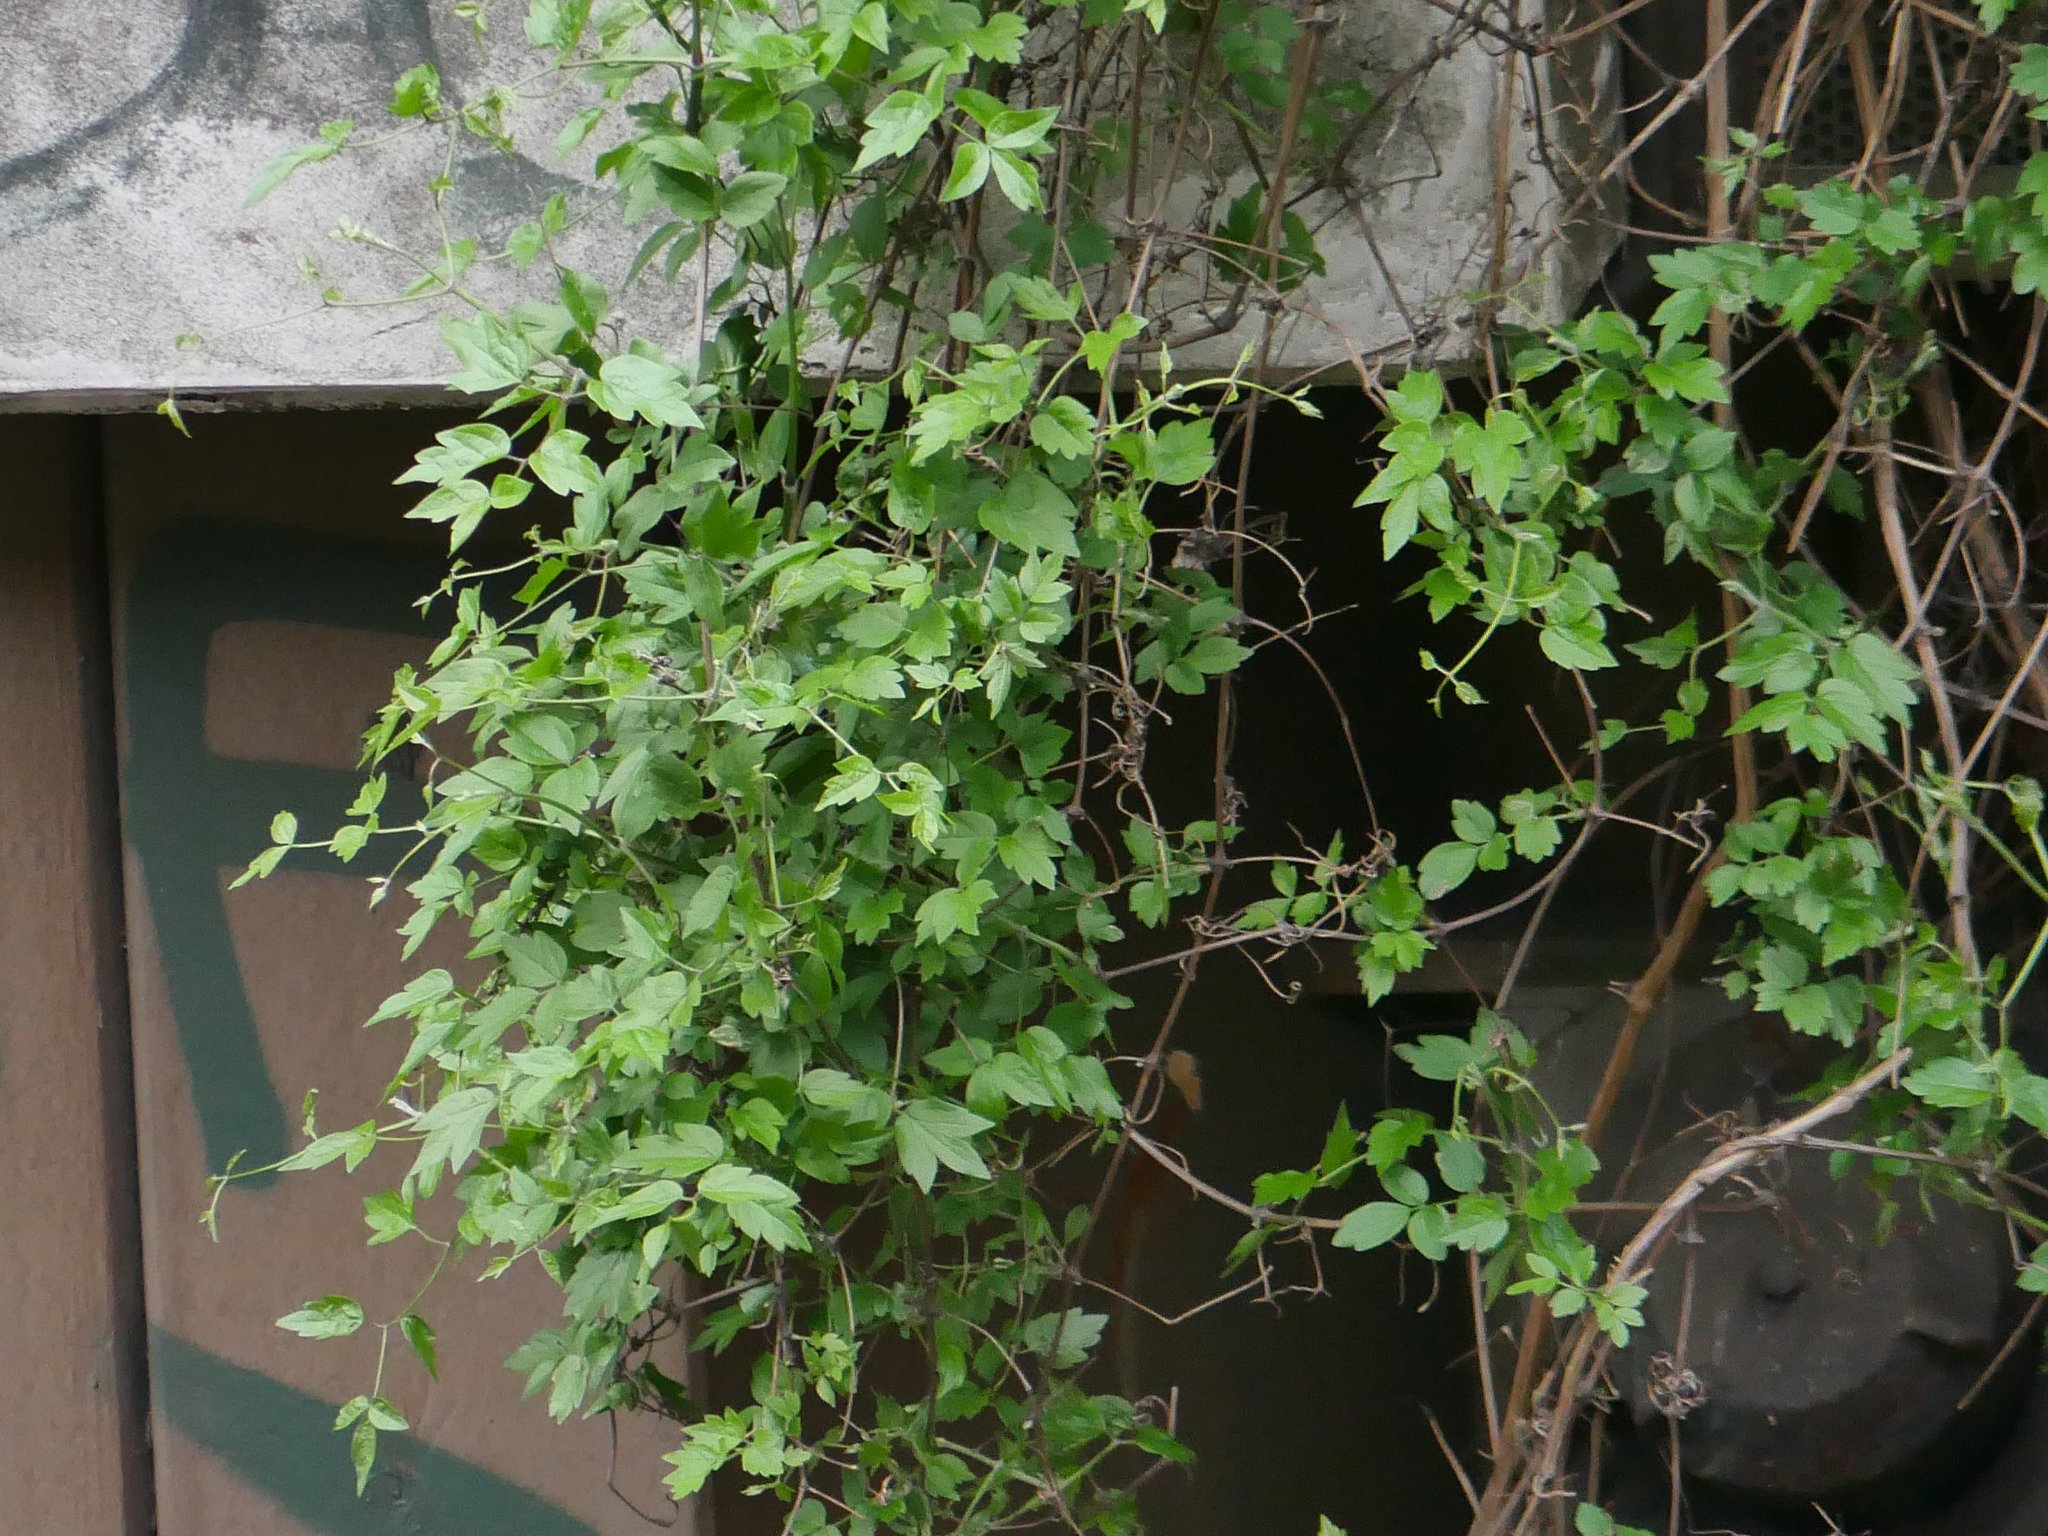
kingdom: Plantae
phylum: Tracheophyta
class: Magnoliopsida
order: Ranunculales
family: Ranunculaceae
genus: Clematis
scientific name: Clematis vitalba
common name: Evergreen clematis
